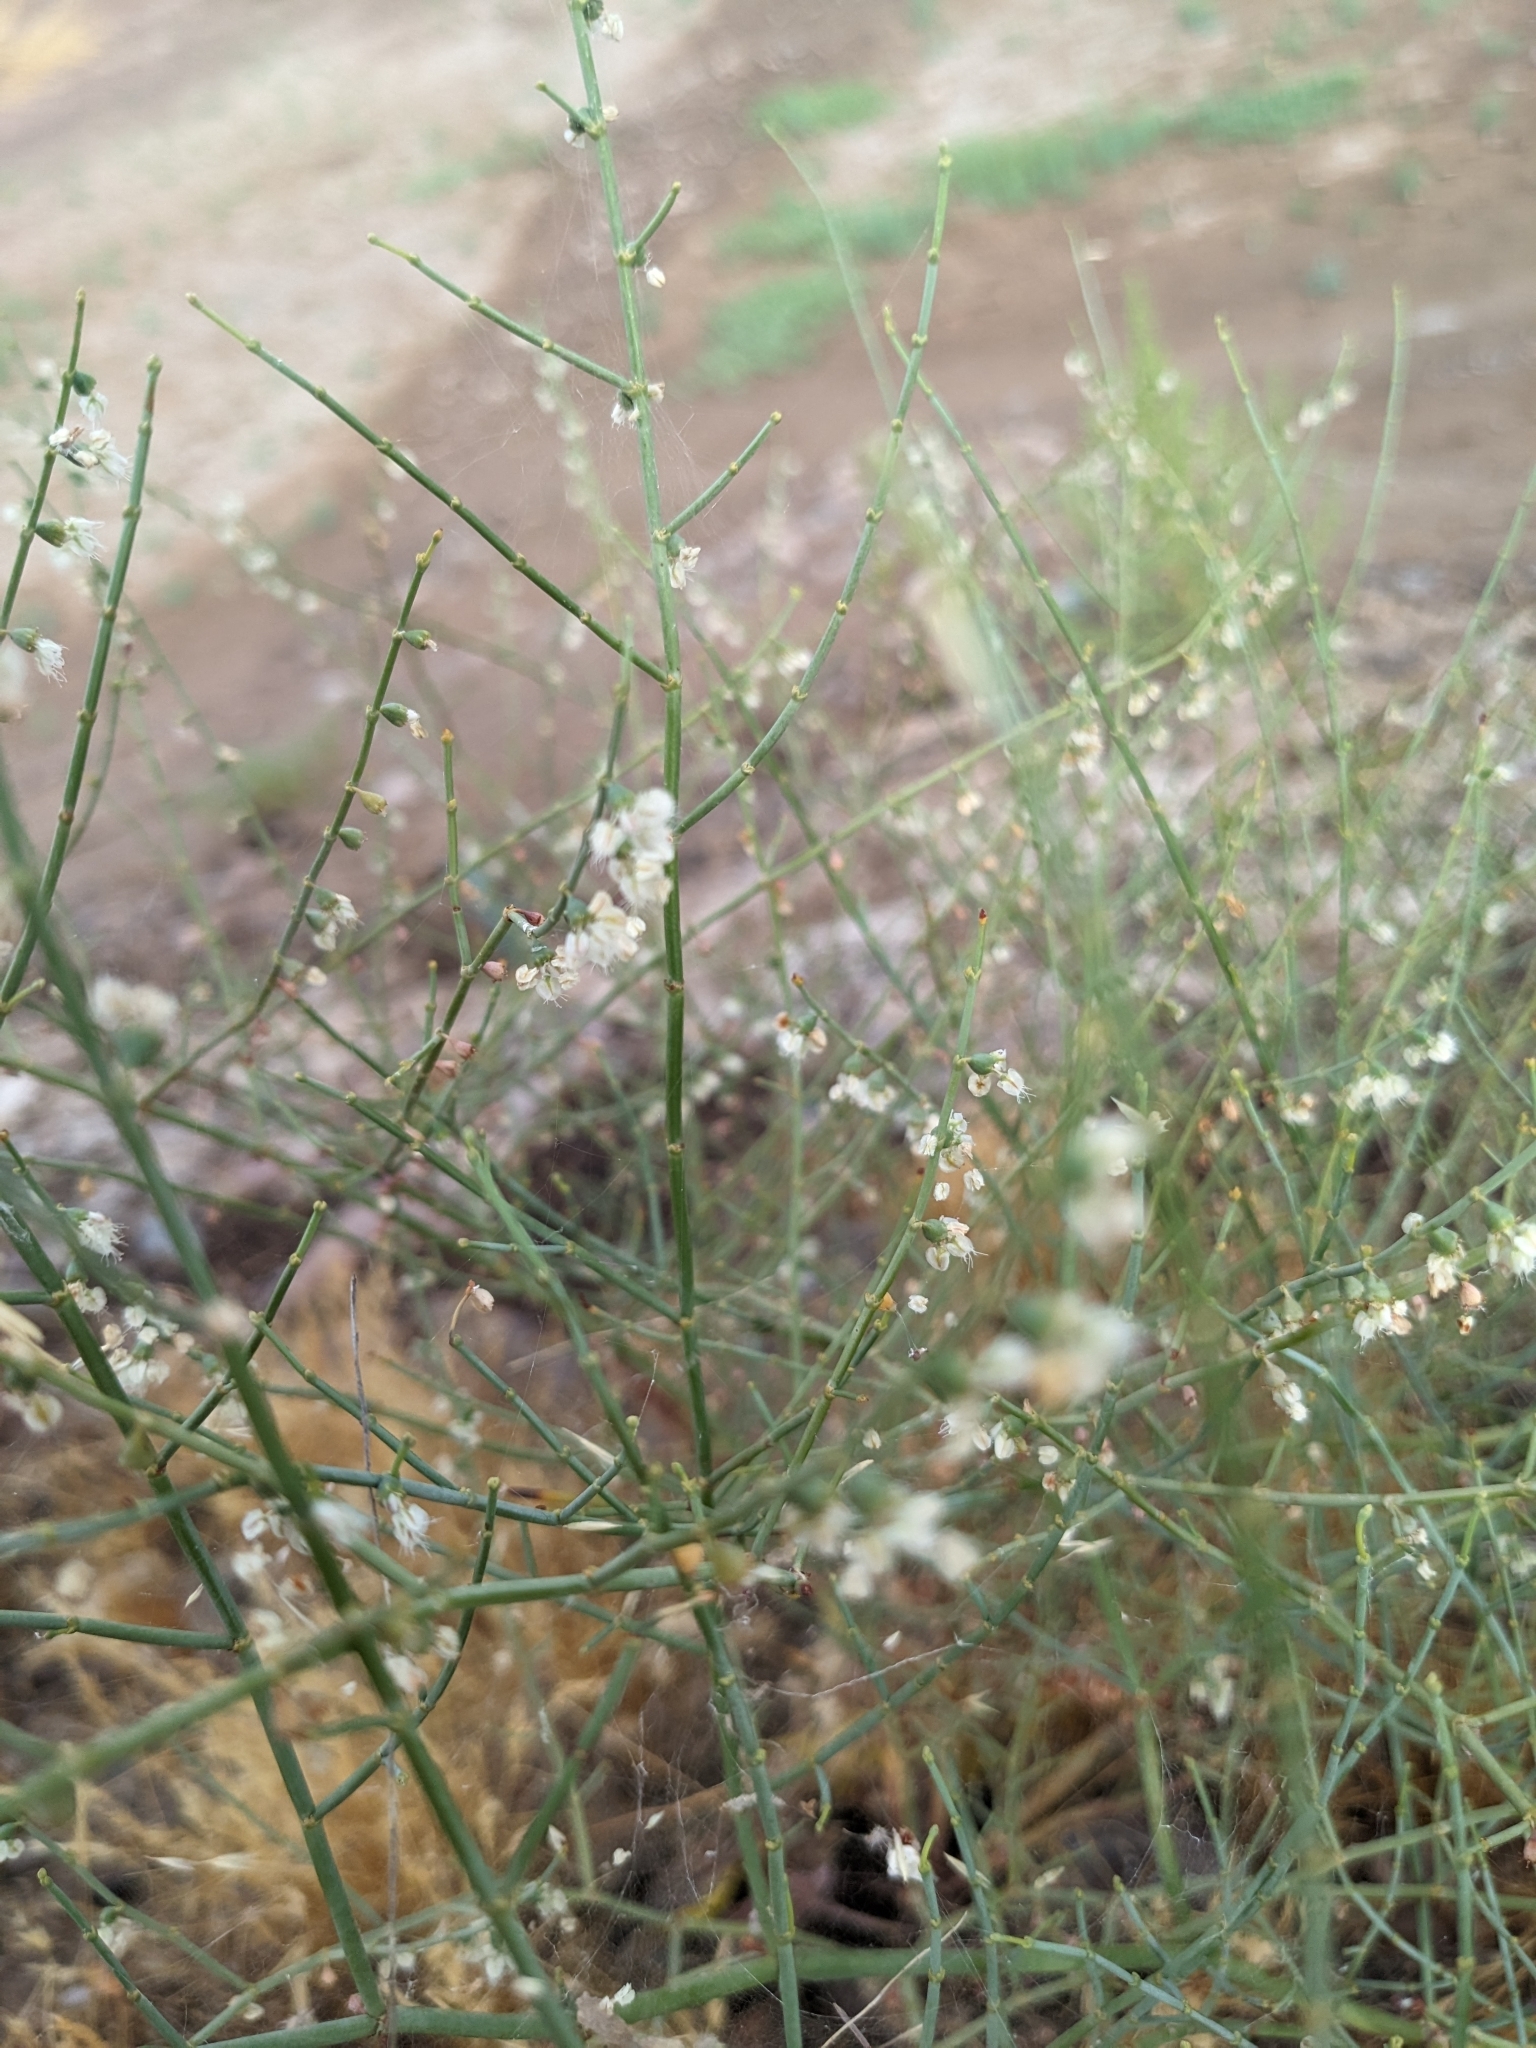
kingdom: Plantae
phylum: Tracheophyta
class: Magnoliopsida
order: Caryophyllales
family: Polygonaceae
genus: Eriogonum
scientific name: Eriogonum deflexum
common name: Skeleton-weed
